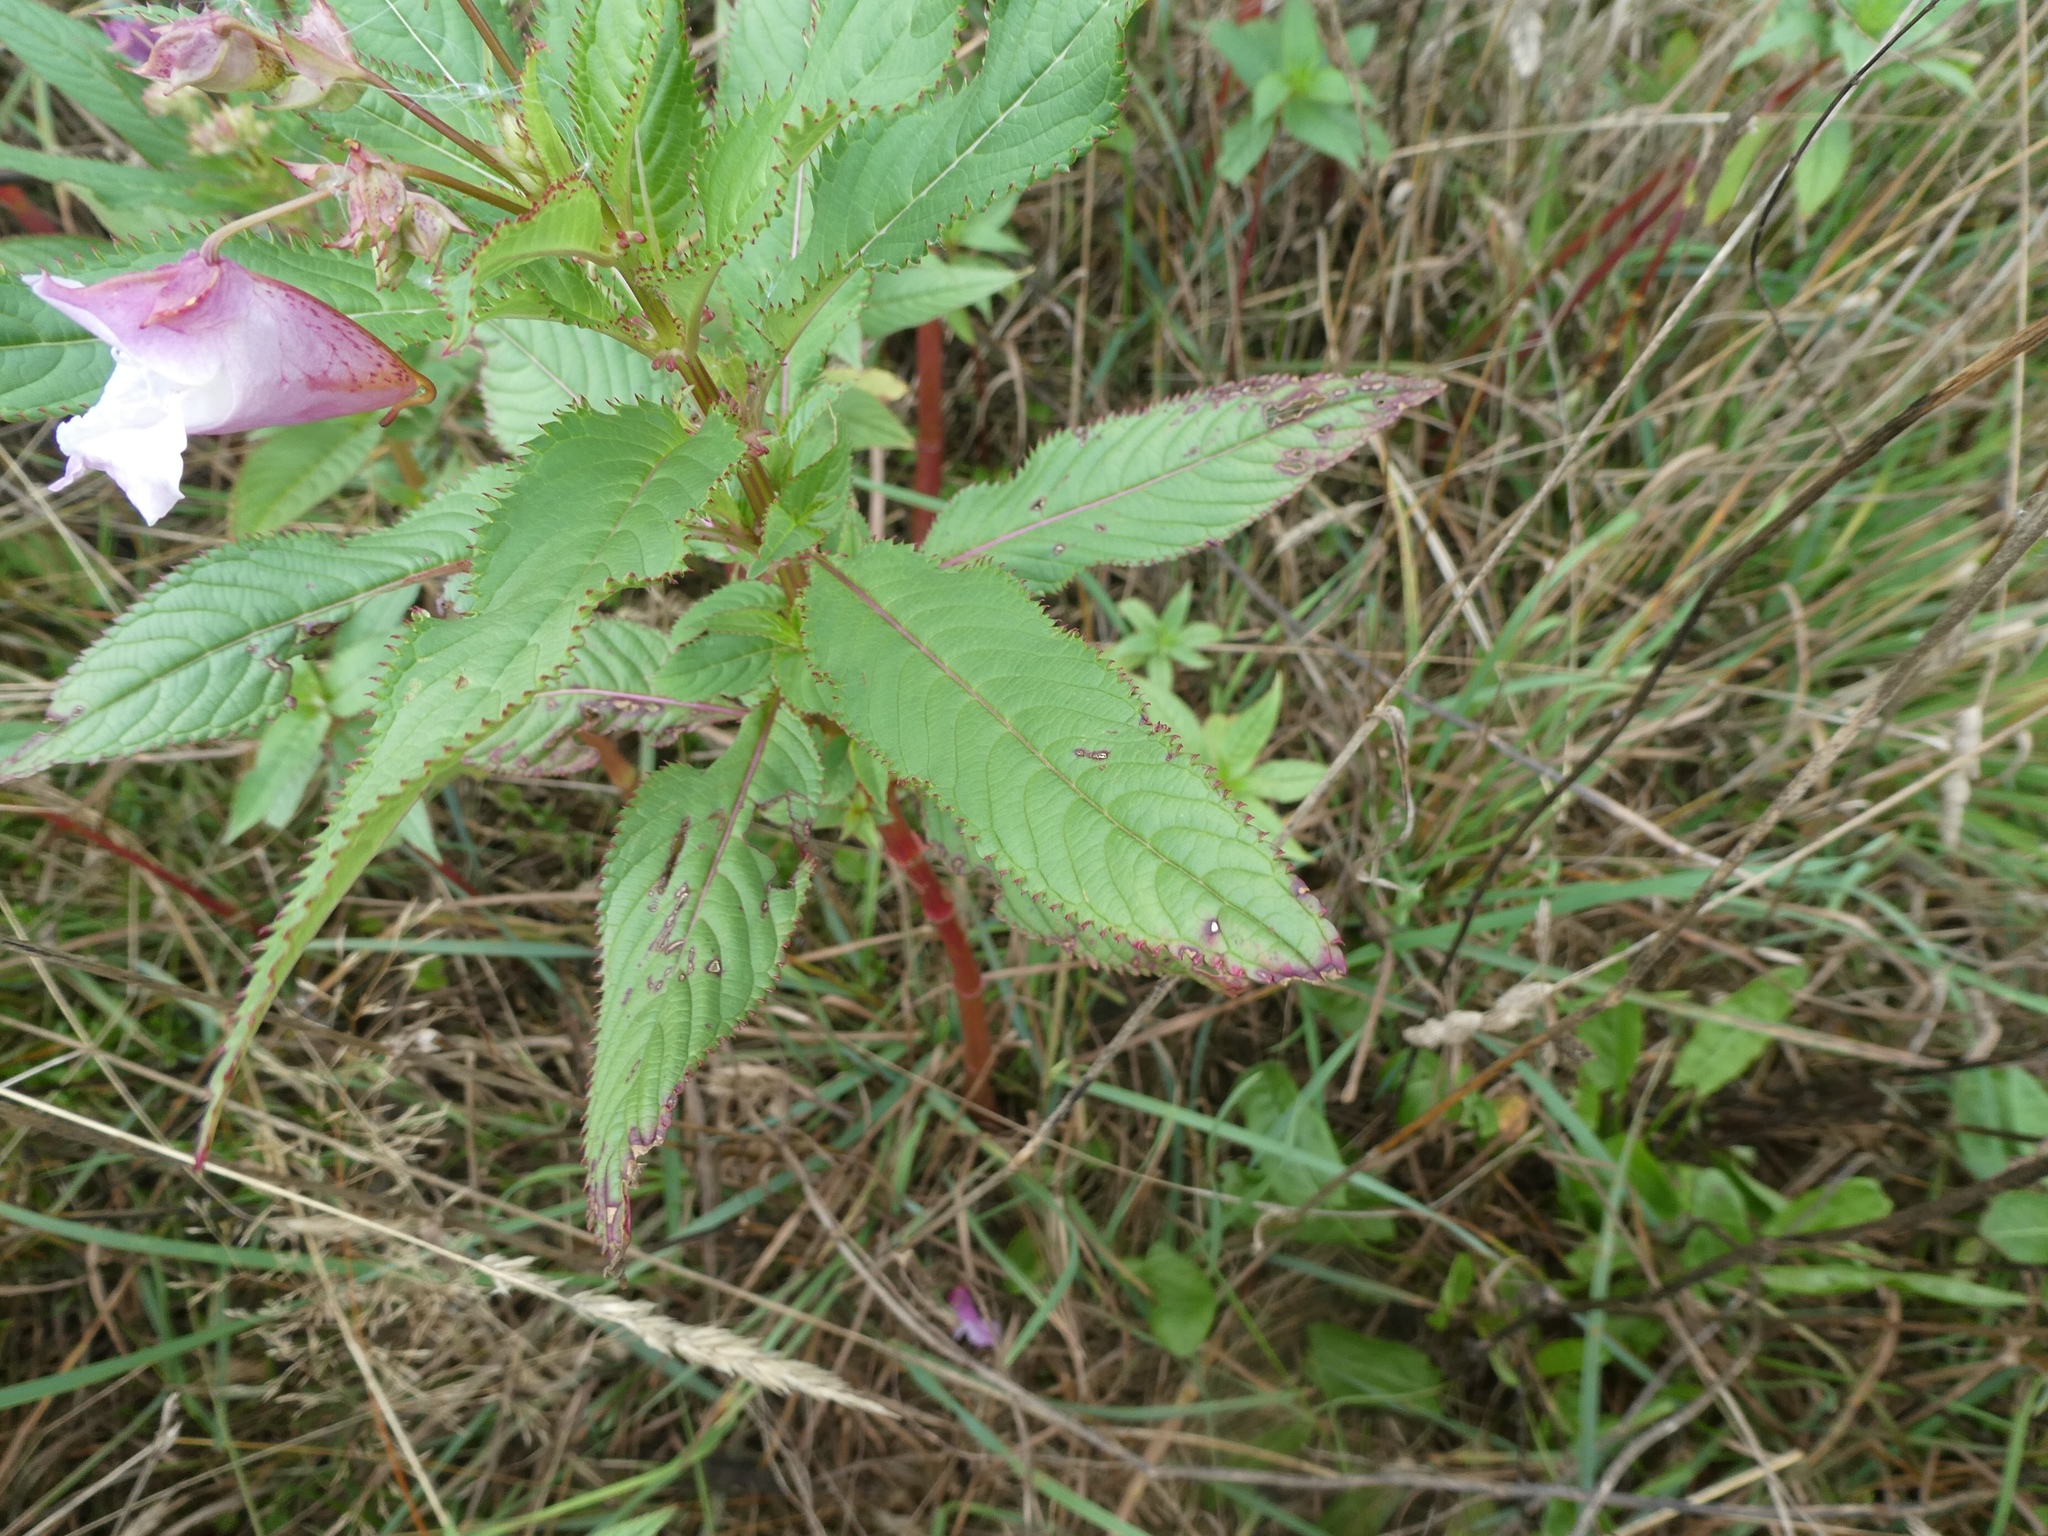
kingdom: Plantae
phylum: Tracheophyta
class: Magnoliopsida
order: Ericales
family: Balsaminaceae
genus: Impatiens
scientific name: Impatiens glandulifera
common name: Himalayan balsam
